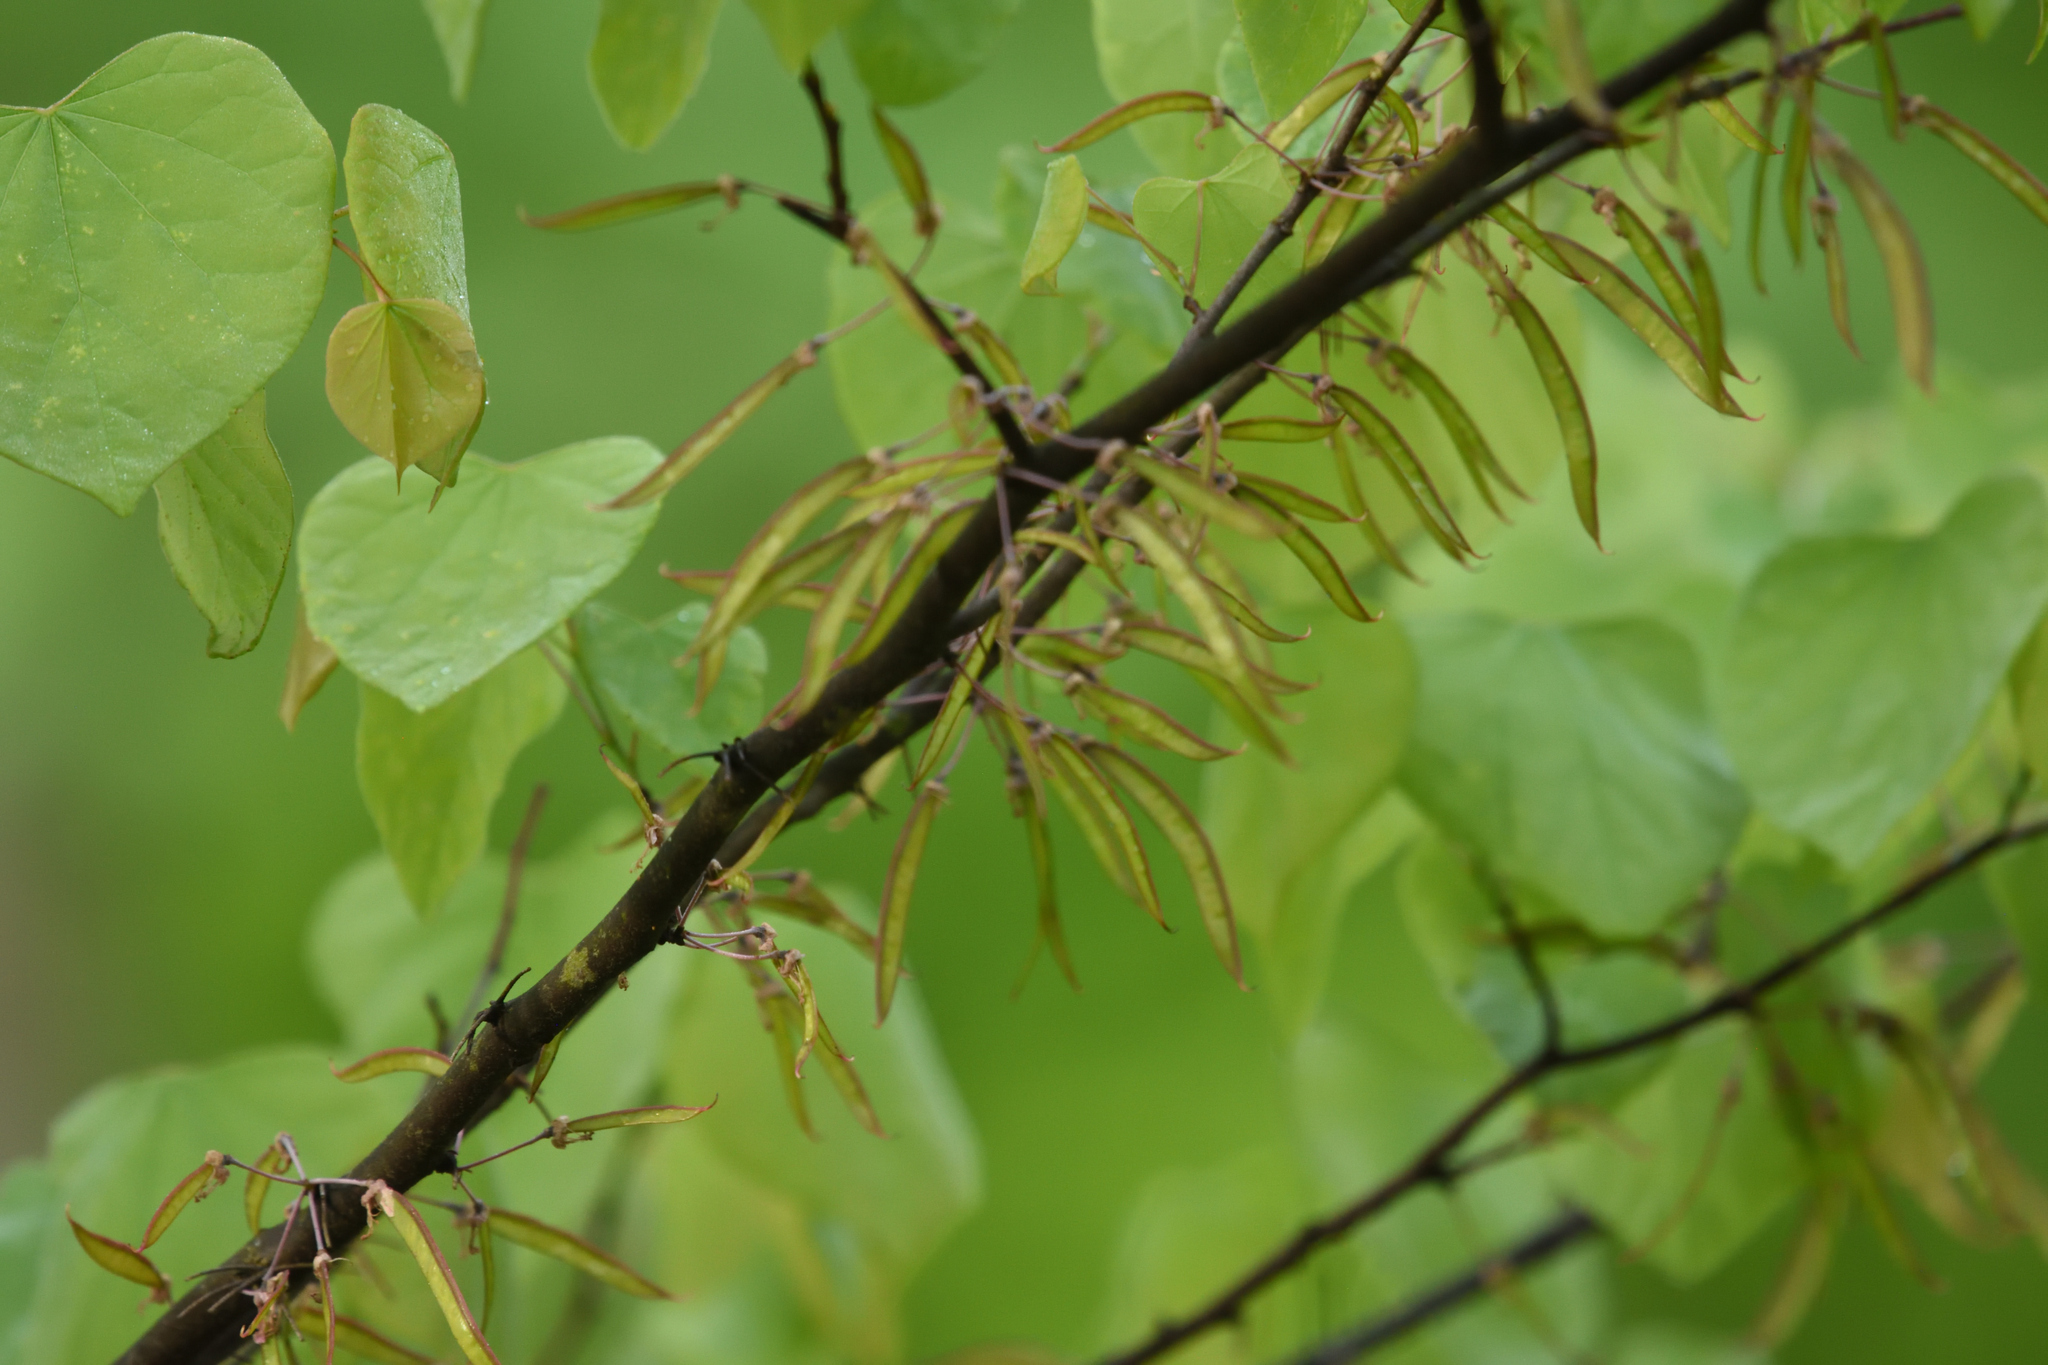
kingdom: Plantae
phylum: Tracheophyta
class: Magnoliopsida
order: Fabales
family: Fabaceae
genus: Cercis
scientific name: Cercis canadensis
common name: Eastern redbud
